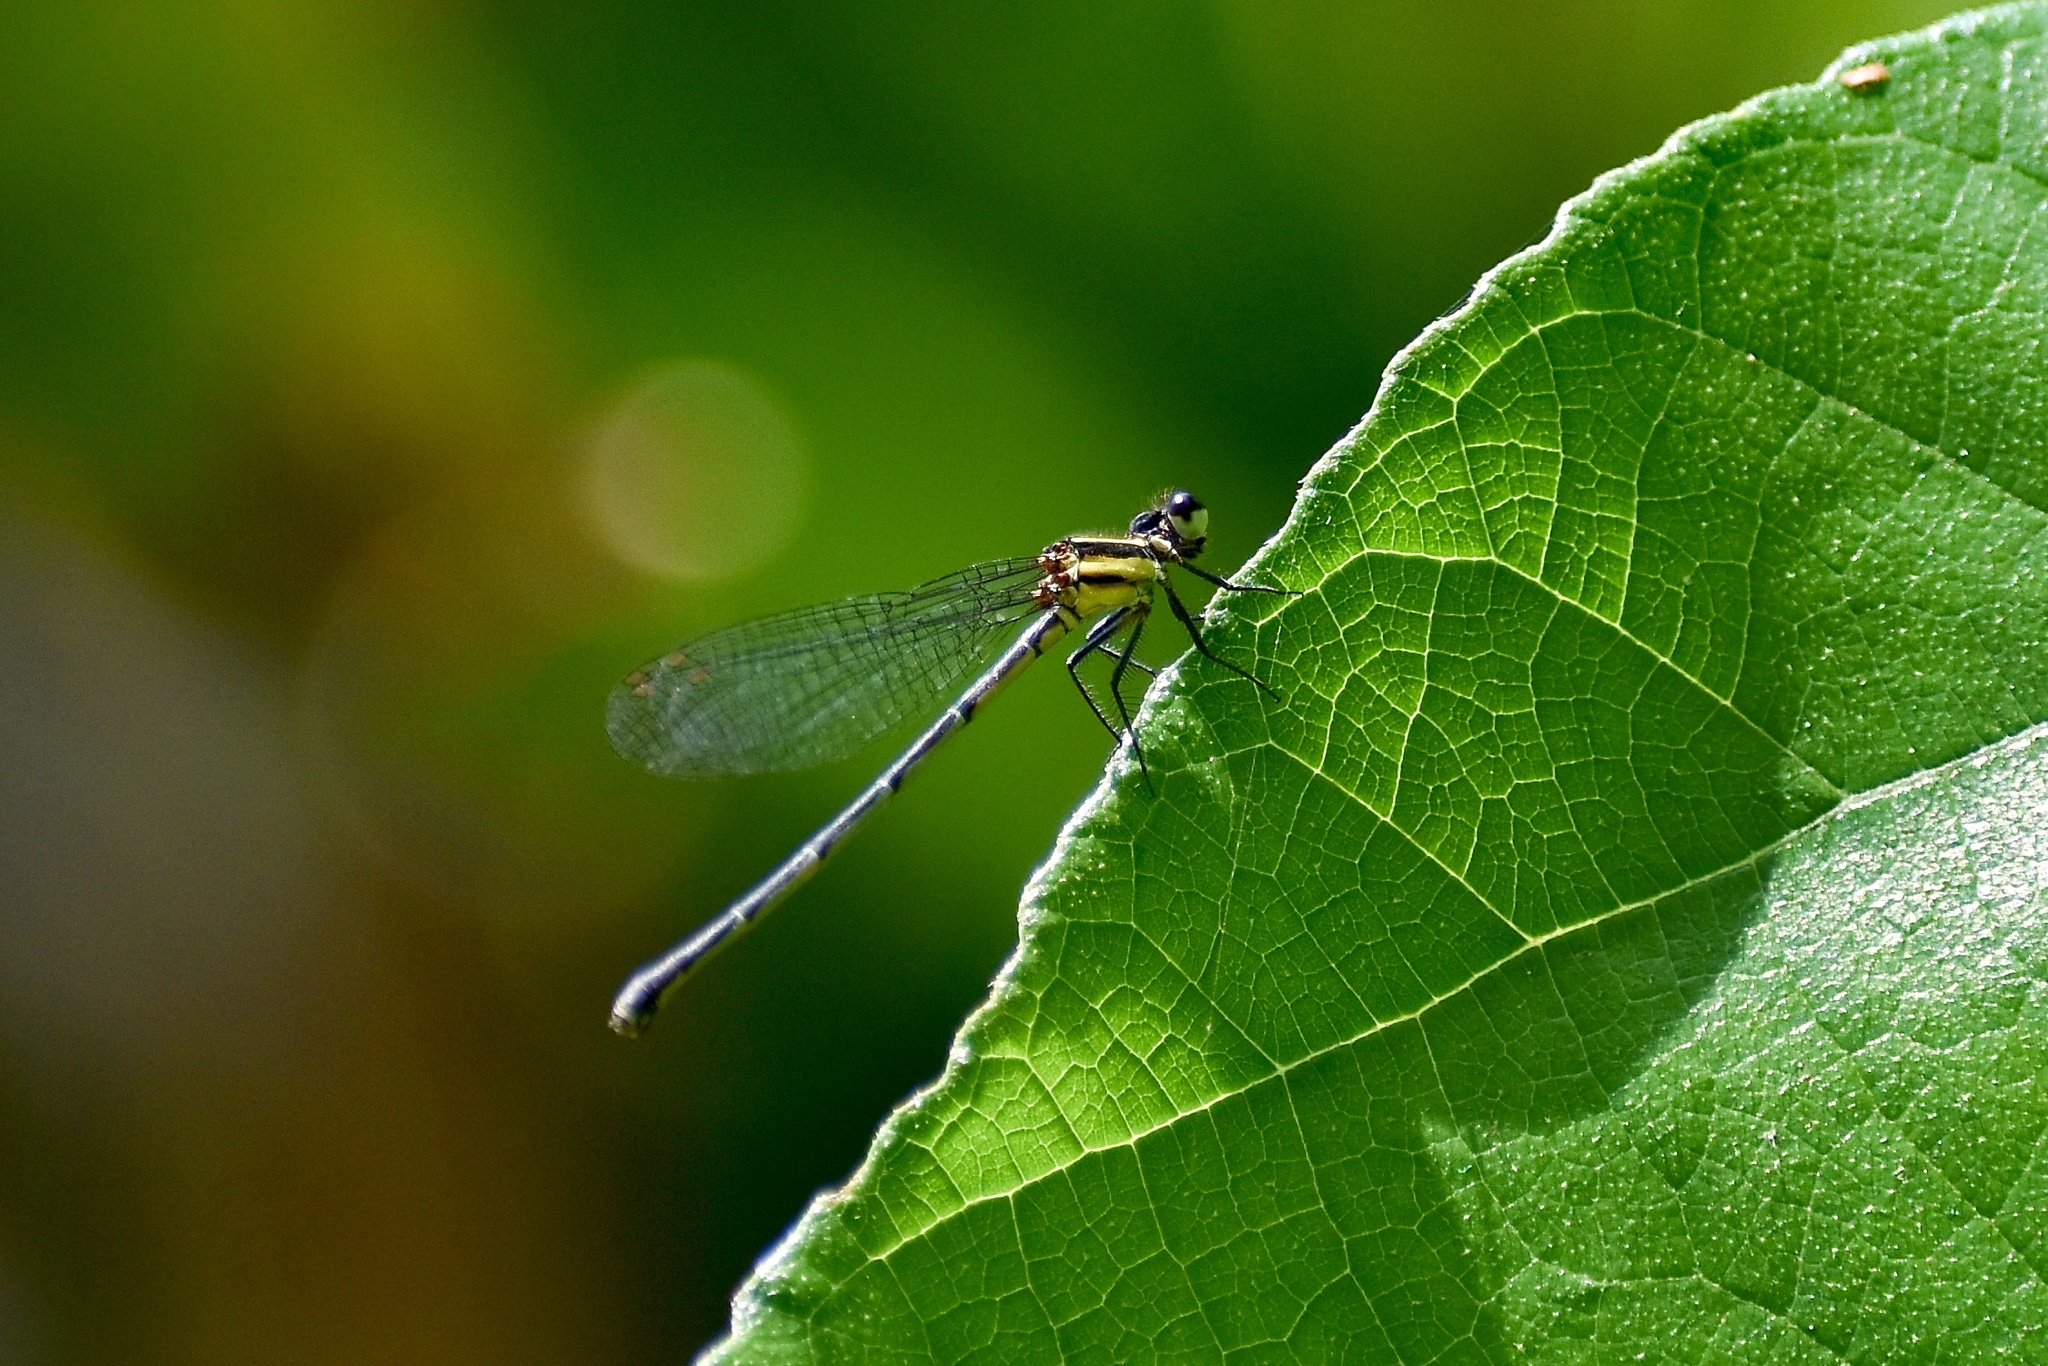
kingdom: Animalia
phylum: Arthropoda
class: Insecta
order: Odonata
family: Platycnemididae
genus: Onychargia
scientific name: Onychargia atrocyana
